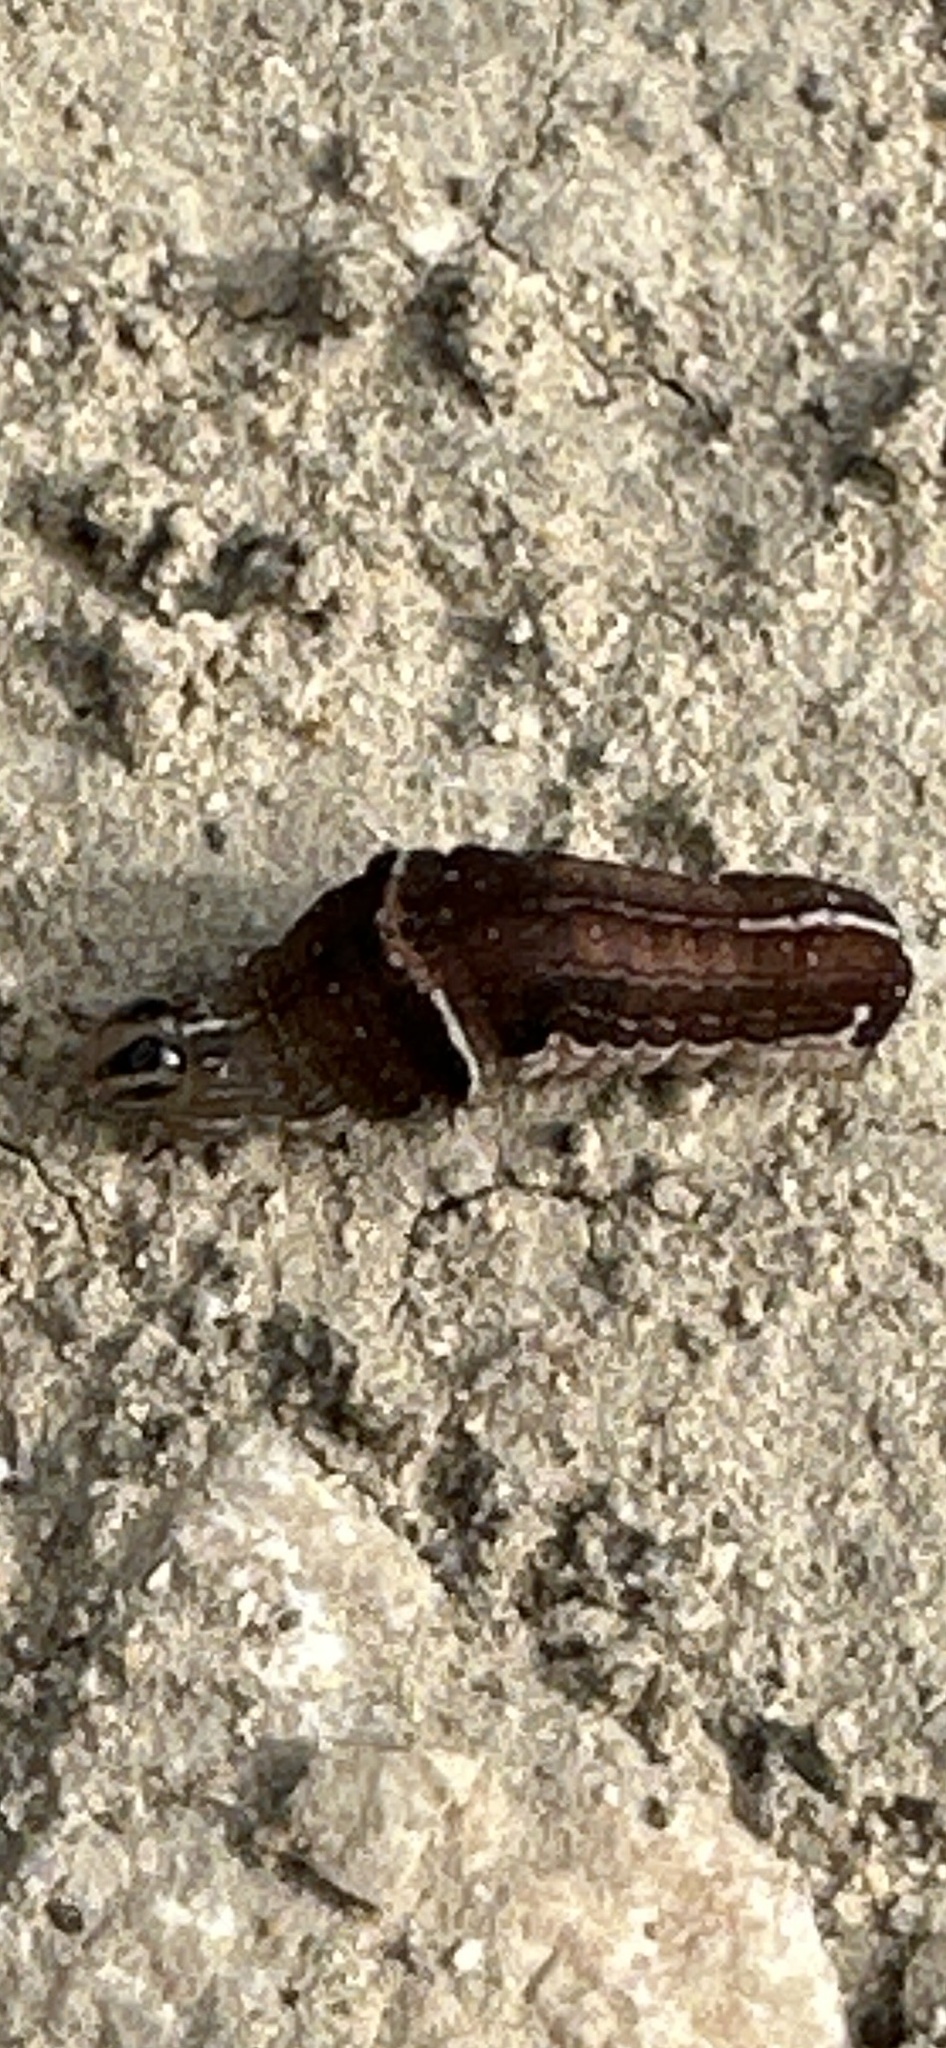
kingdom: Animalia
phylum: Arthropoda
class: Insecta
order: Lepidoptera
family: Noctuidae
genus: Galgula
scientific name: Galgula partita
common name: Wedgeling
